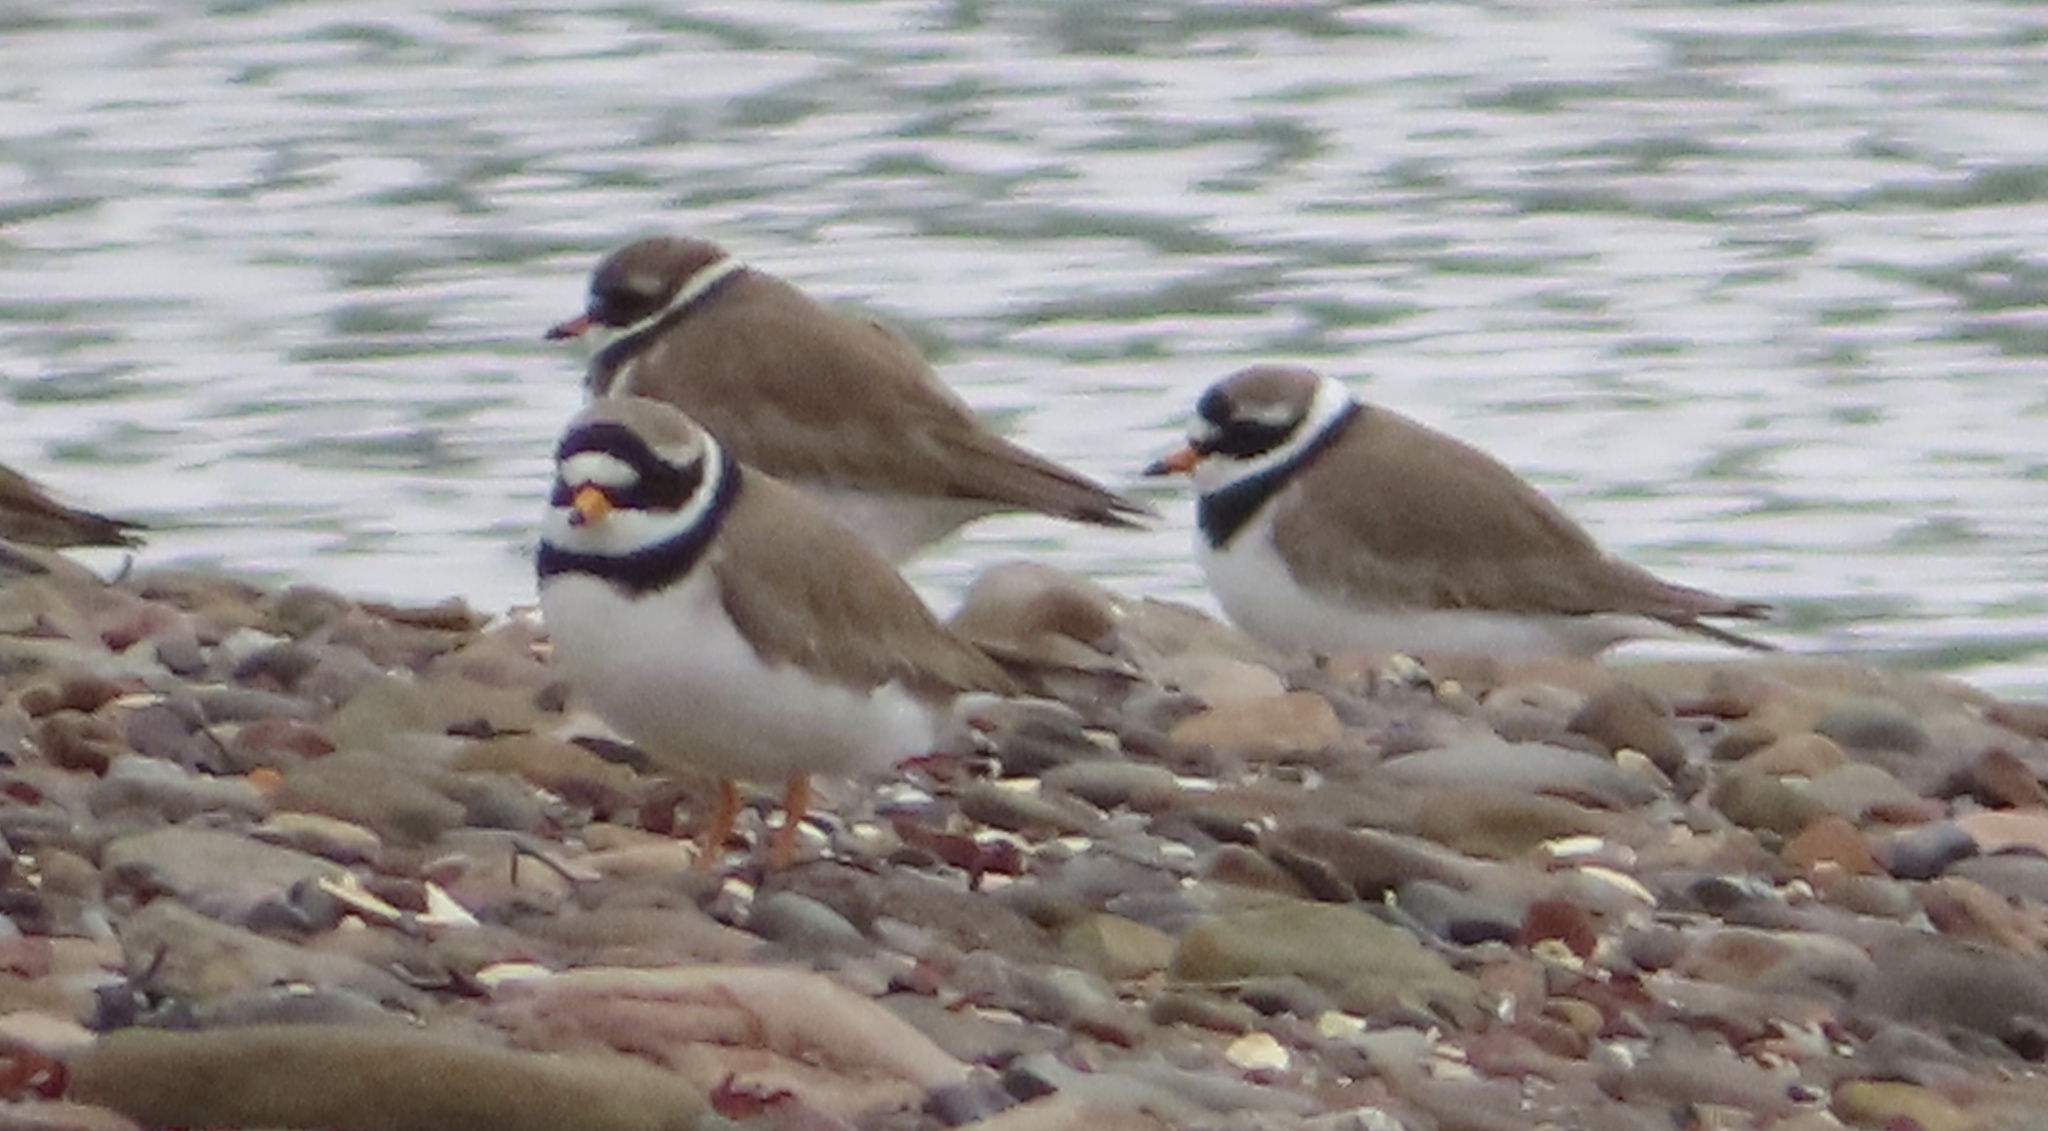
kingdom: Animalia
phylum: Chordata
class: Aves
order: Charadriiformes
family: Charadriidae
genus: Charadrius
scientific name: Charadrius hiaticula
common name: Common ringed plover
